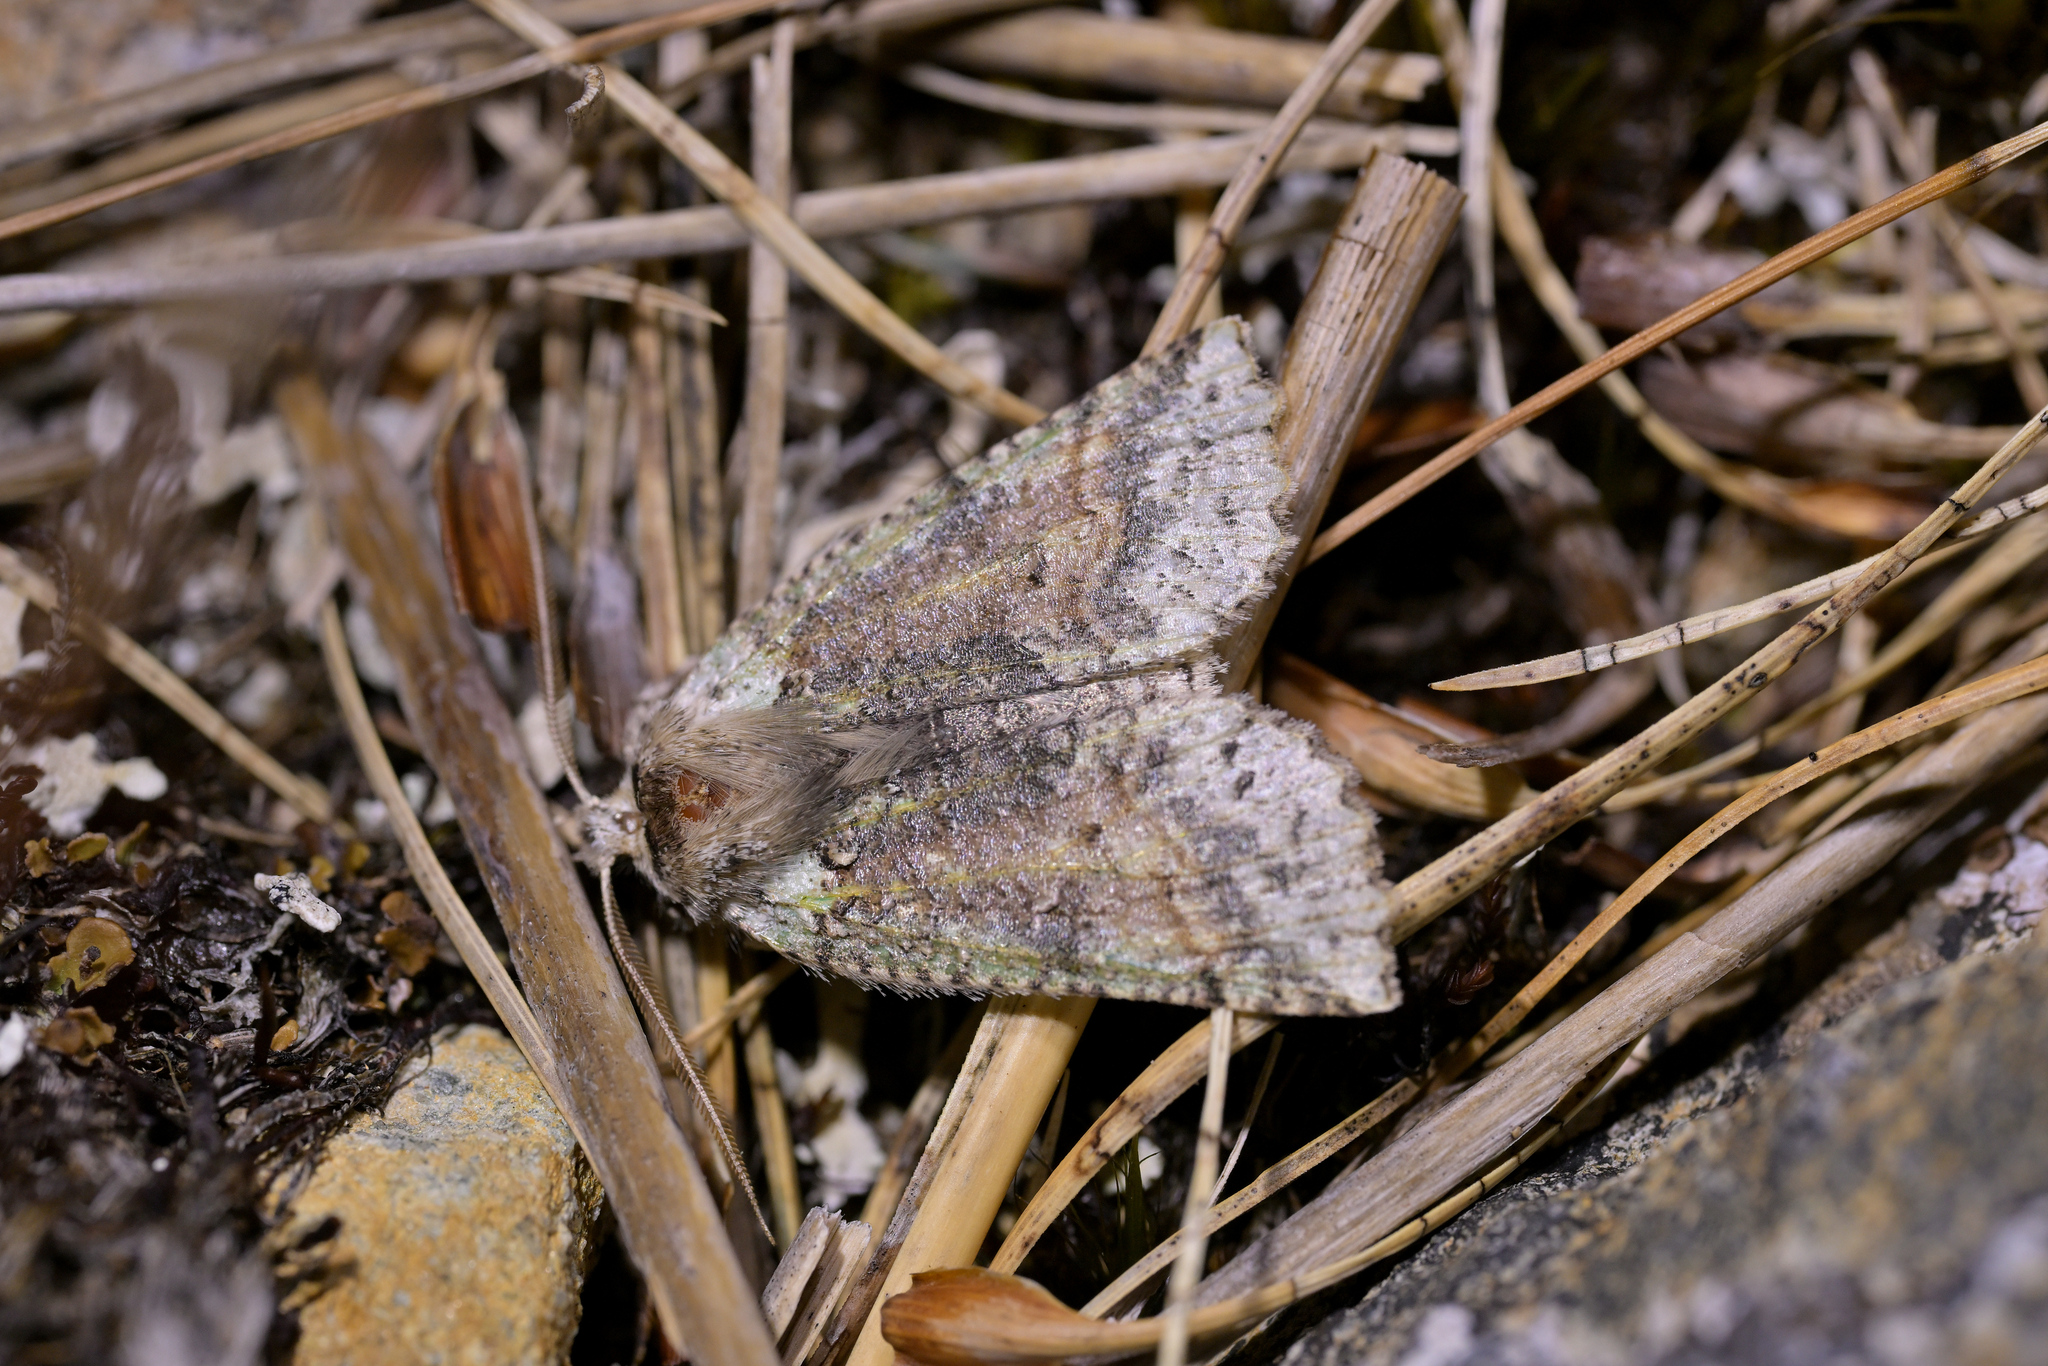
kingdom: Animalia
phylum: Arthropoda
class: Insecta
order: Lepidoptera
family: Geometridae
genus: Declana
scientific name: Declana floccosa
